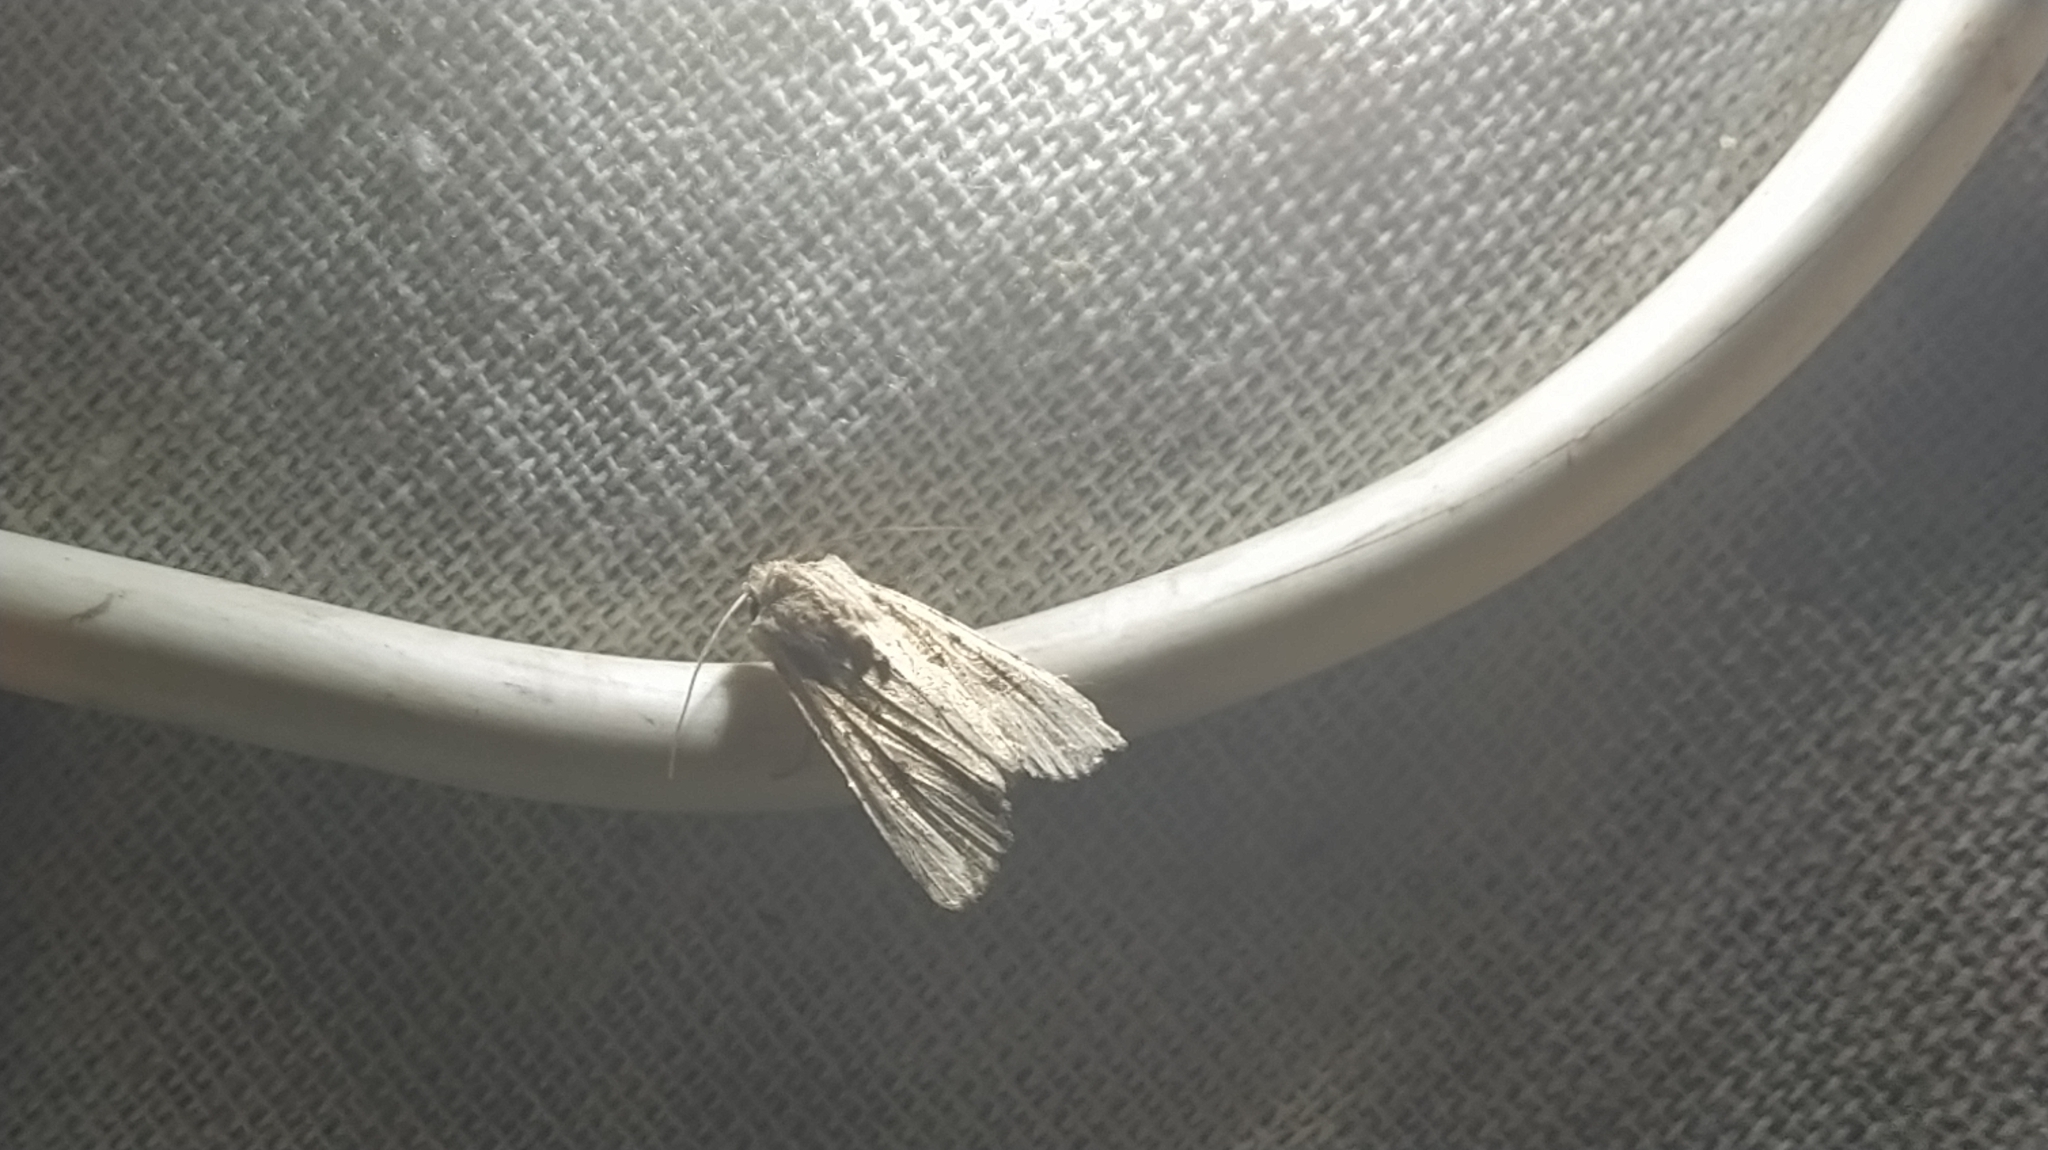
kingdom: Animalia
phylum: Arthropoda
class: Insecta
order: Lepidoptera
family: Noctuidae
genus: Ichneutica
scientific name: Ichneutica lignana
